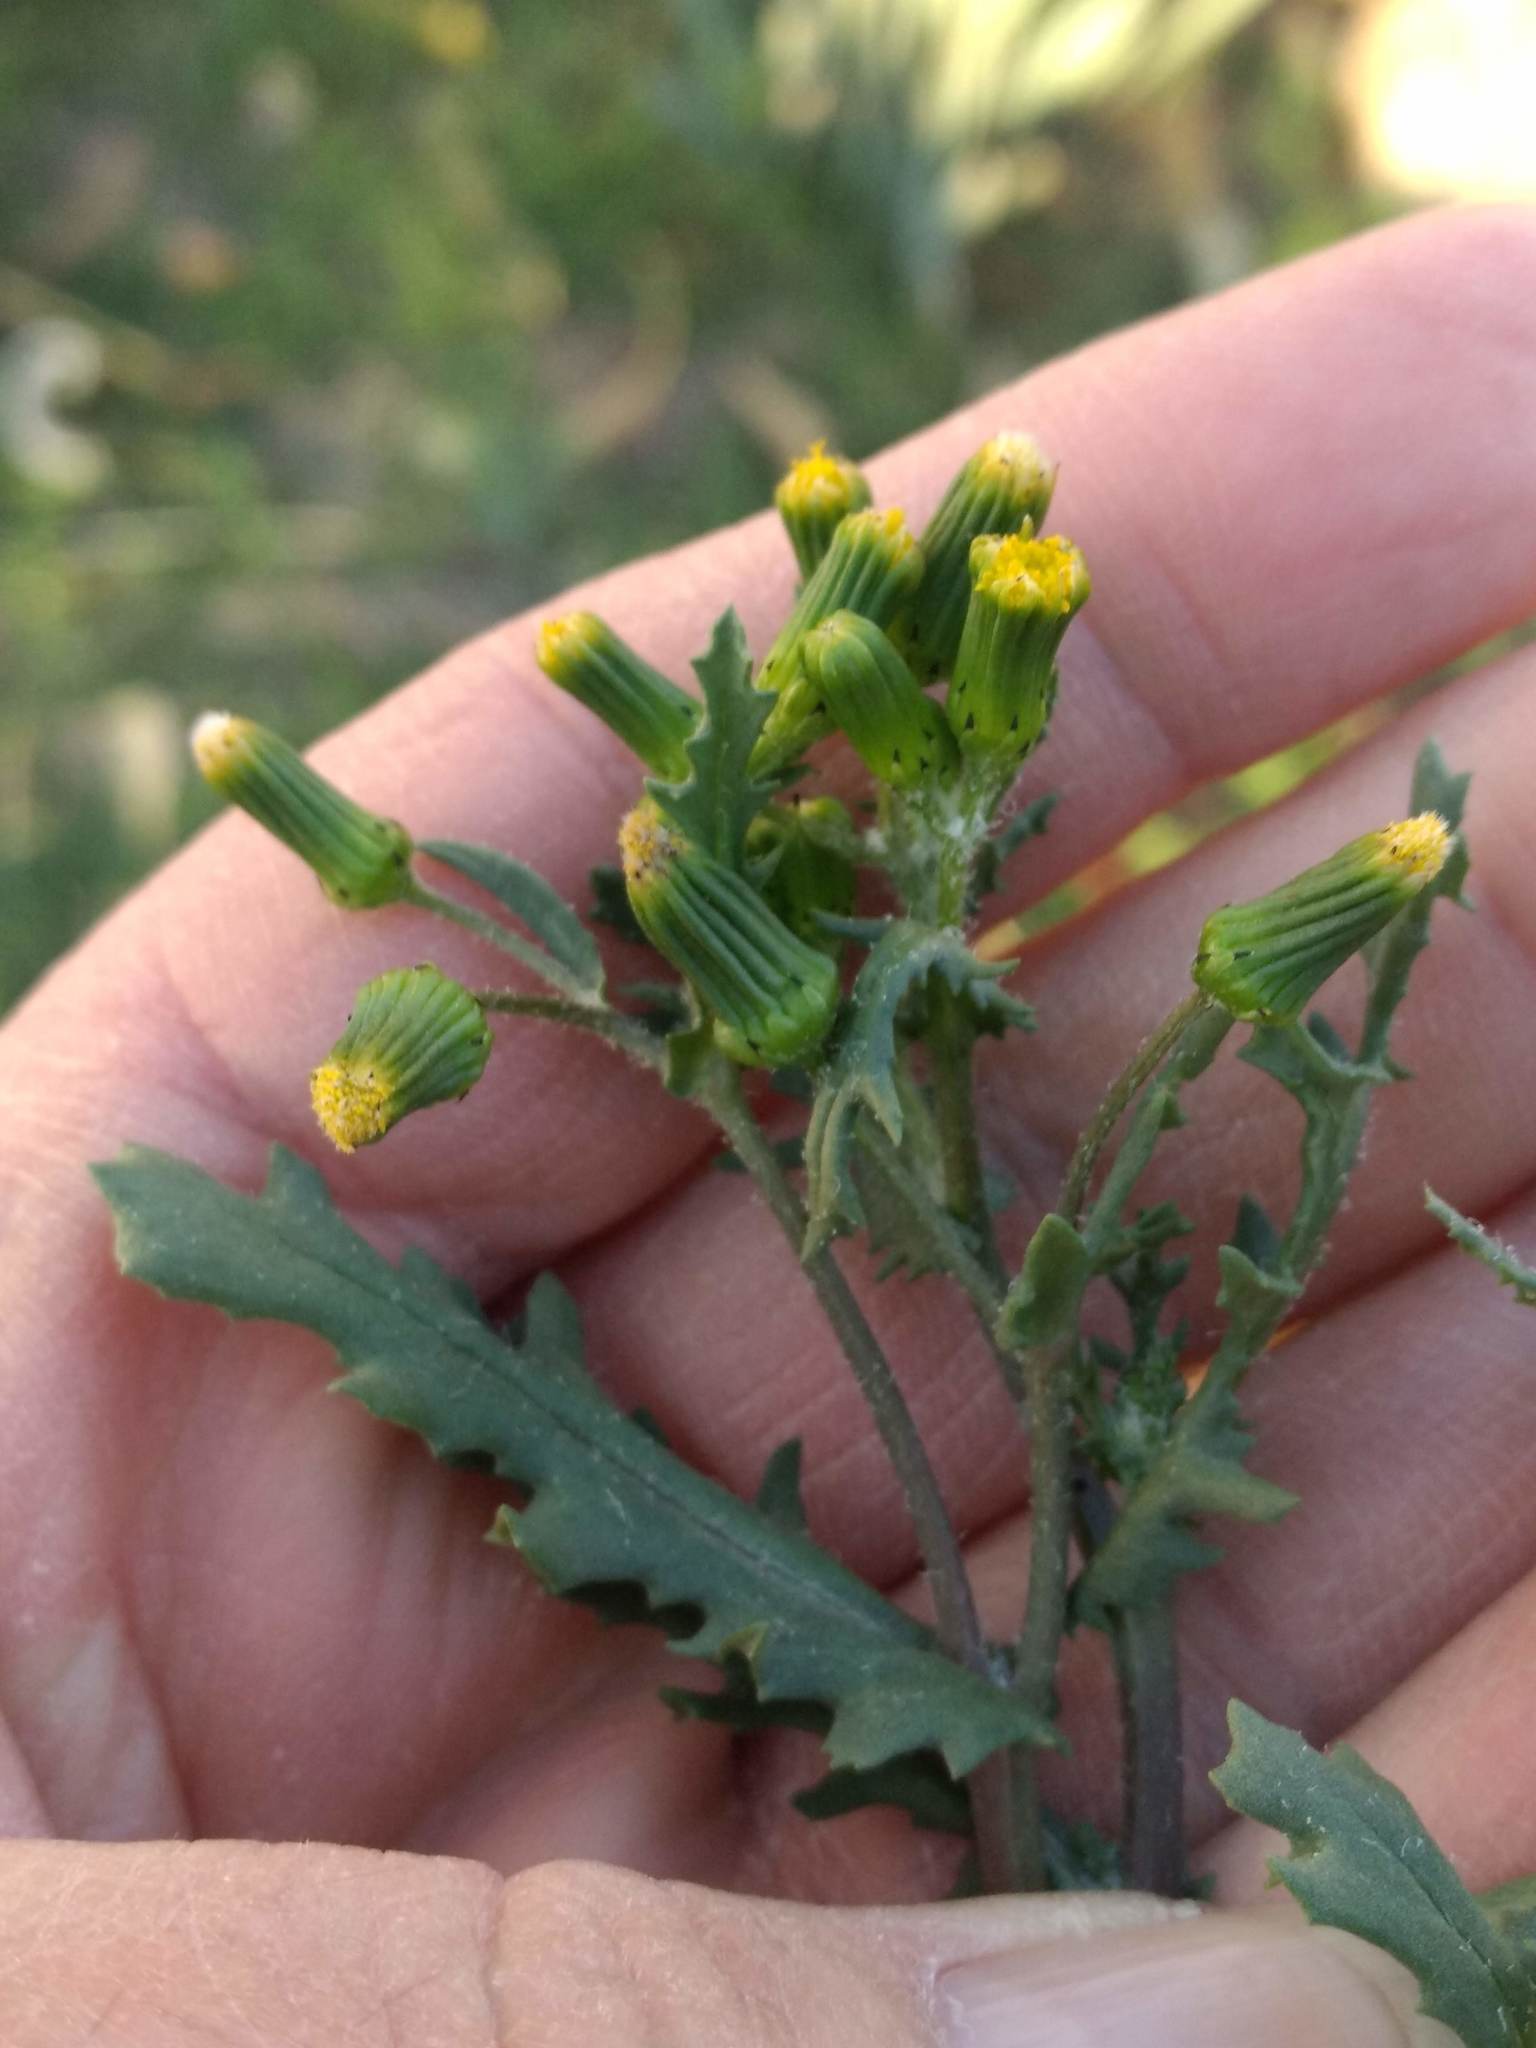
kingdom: Plantae
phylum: Tracheophyta
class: Magnoliopsida
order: Asterales
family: Asteraceae
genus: Senecio
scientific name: Senecio vulgaris
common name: Old-man-in-the-spring
